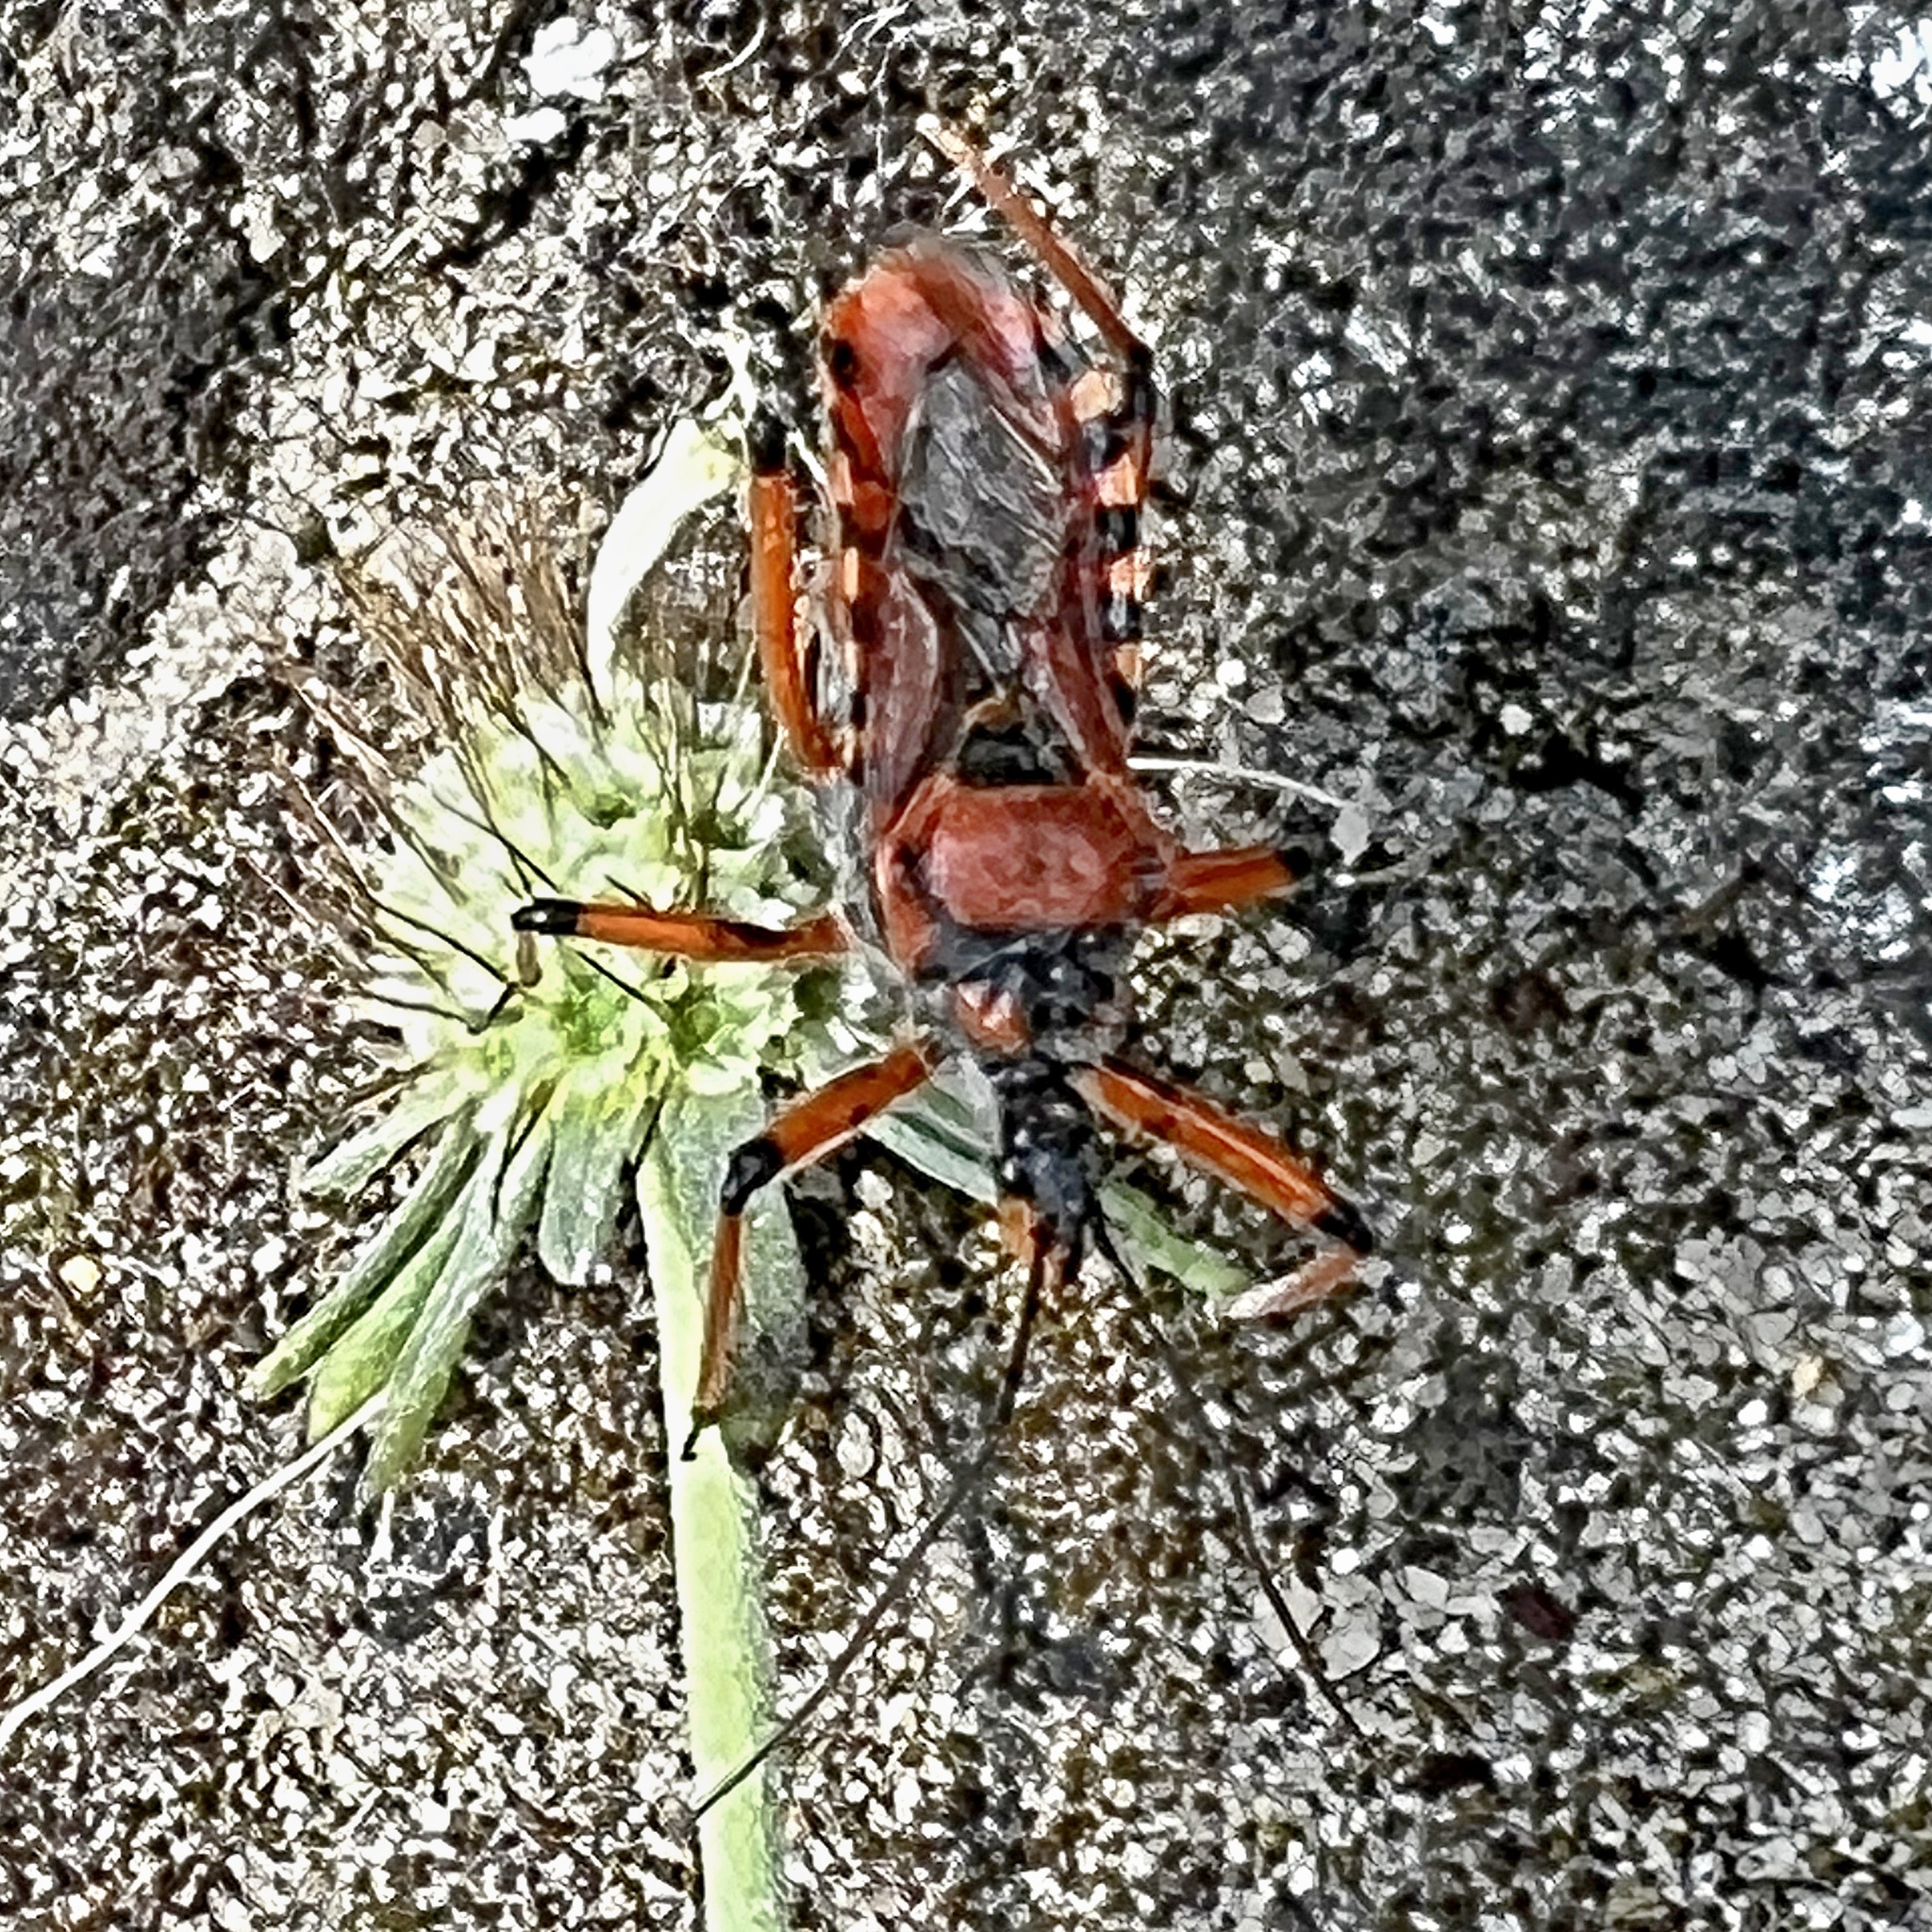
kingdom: Animalia
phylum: Arthropoda
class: Insecta
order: Hemiptera
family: Reduviidae
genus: Rhynocoris
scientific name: Rhynocoris iracundus
